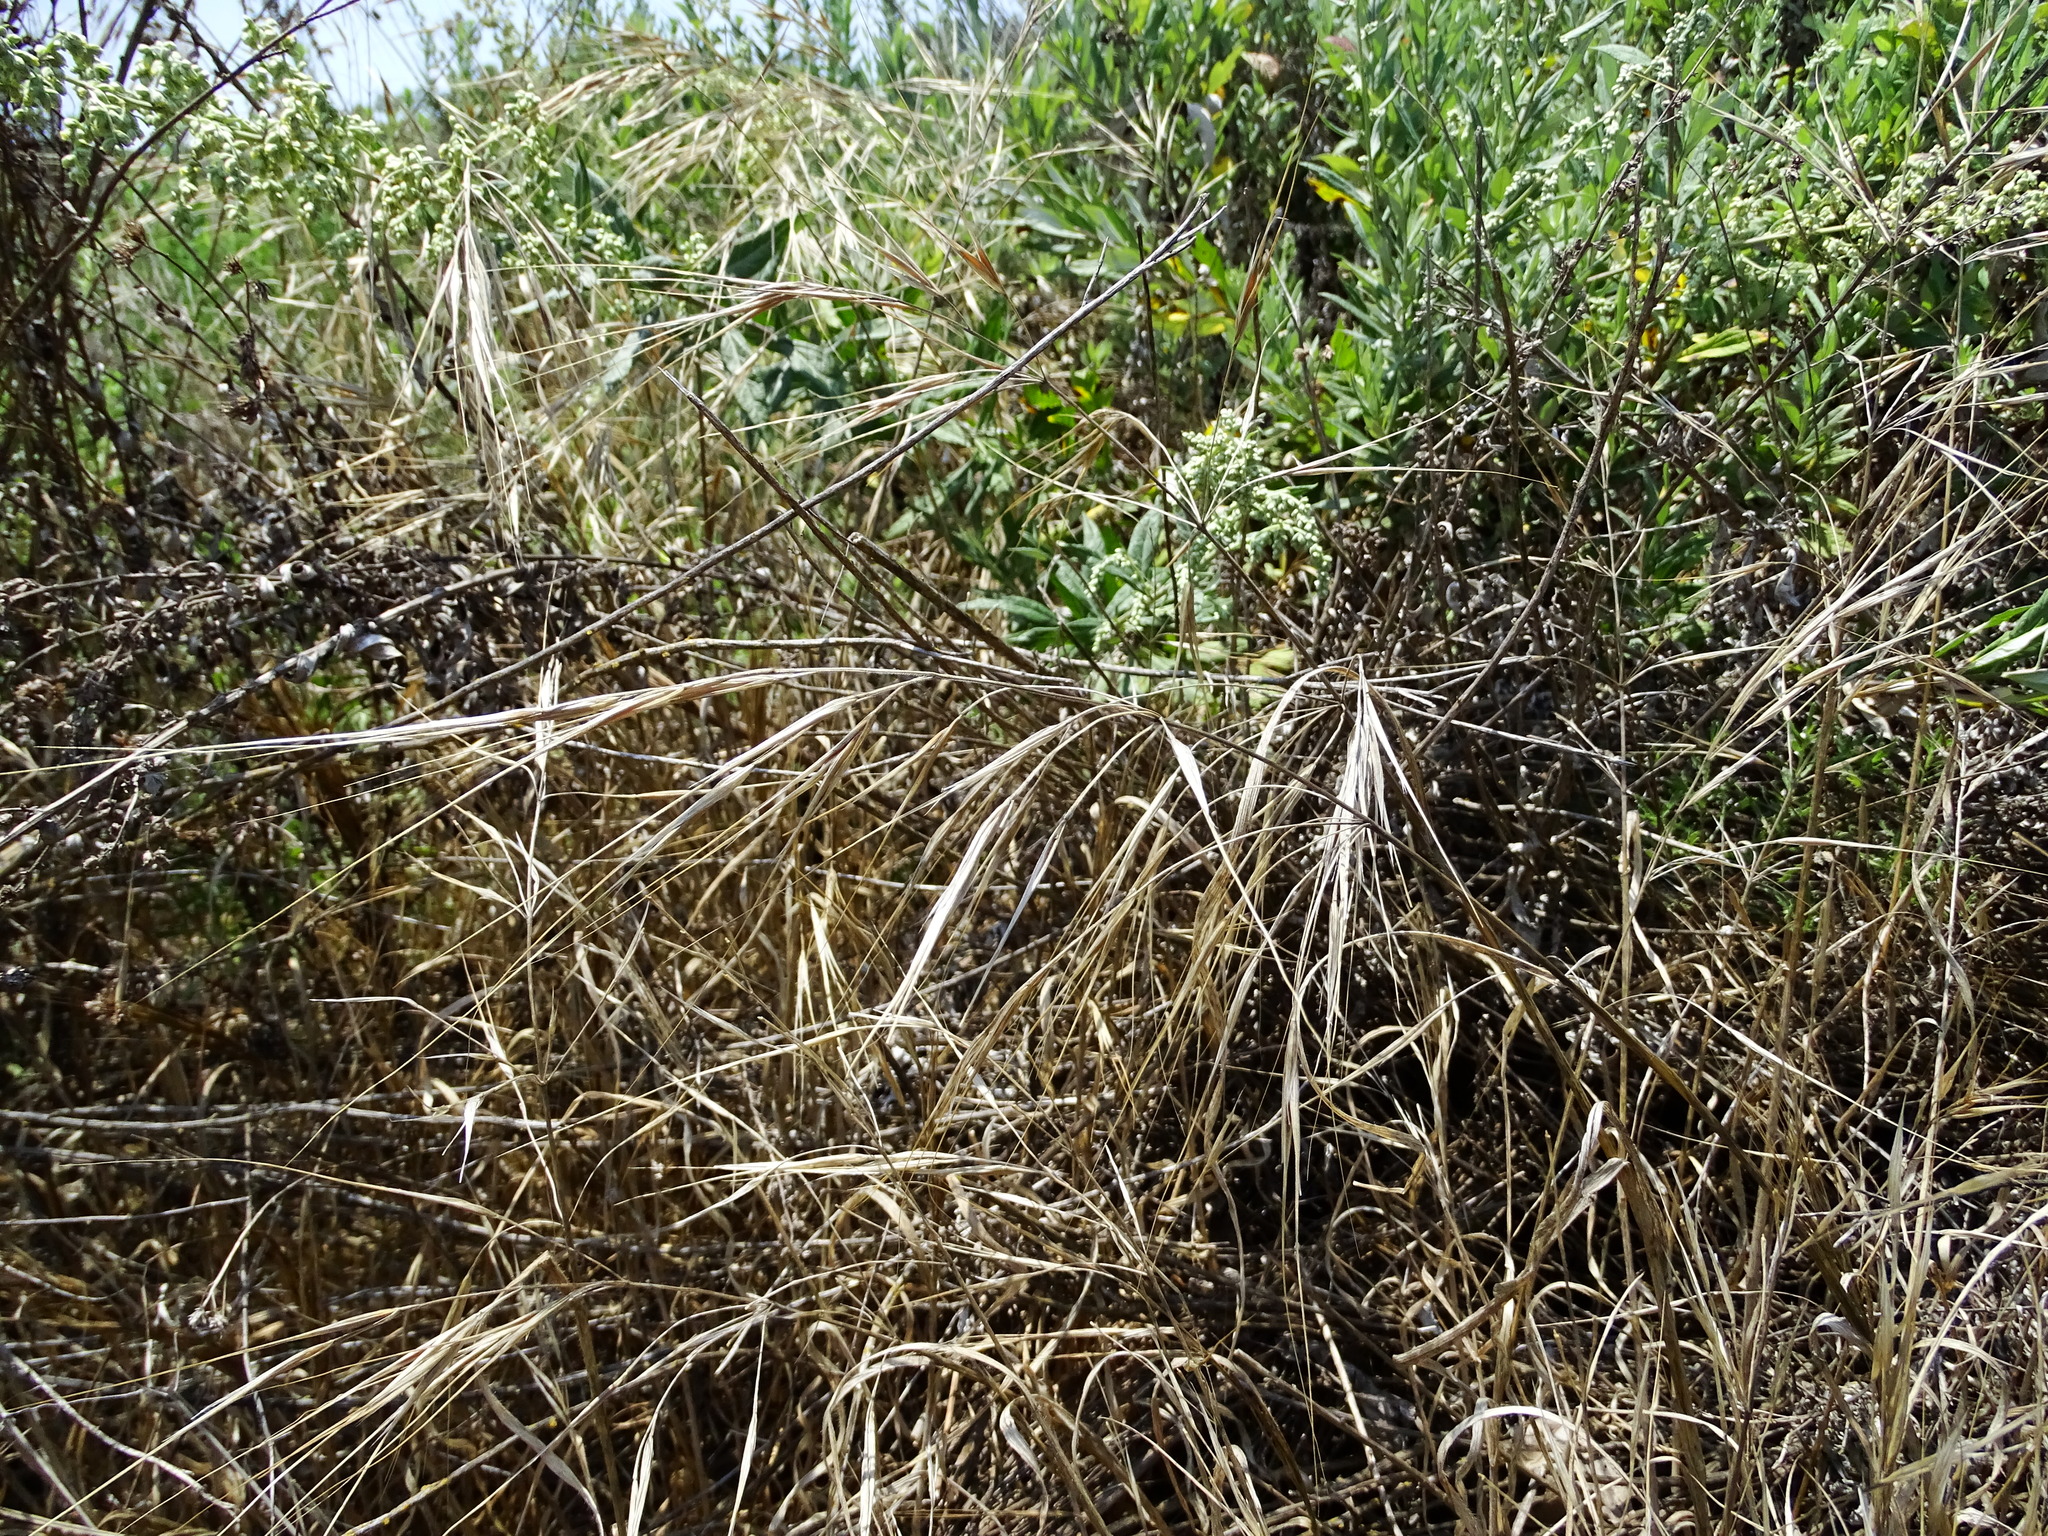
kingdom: Plantae
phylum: Tracheophyta
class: Liliopsida
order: Poales
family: Poaceae
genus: Bromus
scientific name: Bromus diandrus
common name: Ripgut brome
